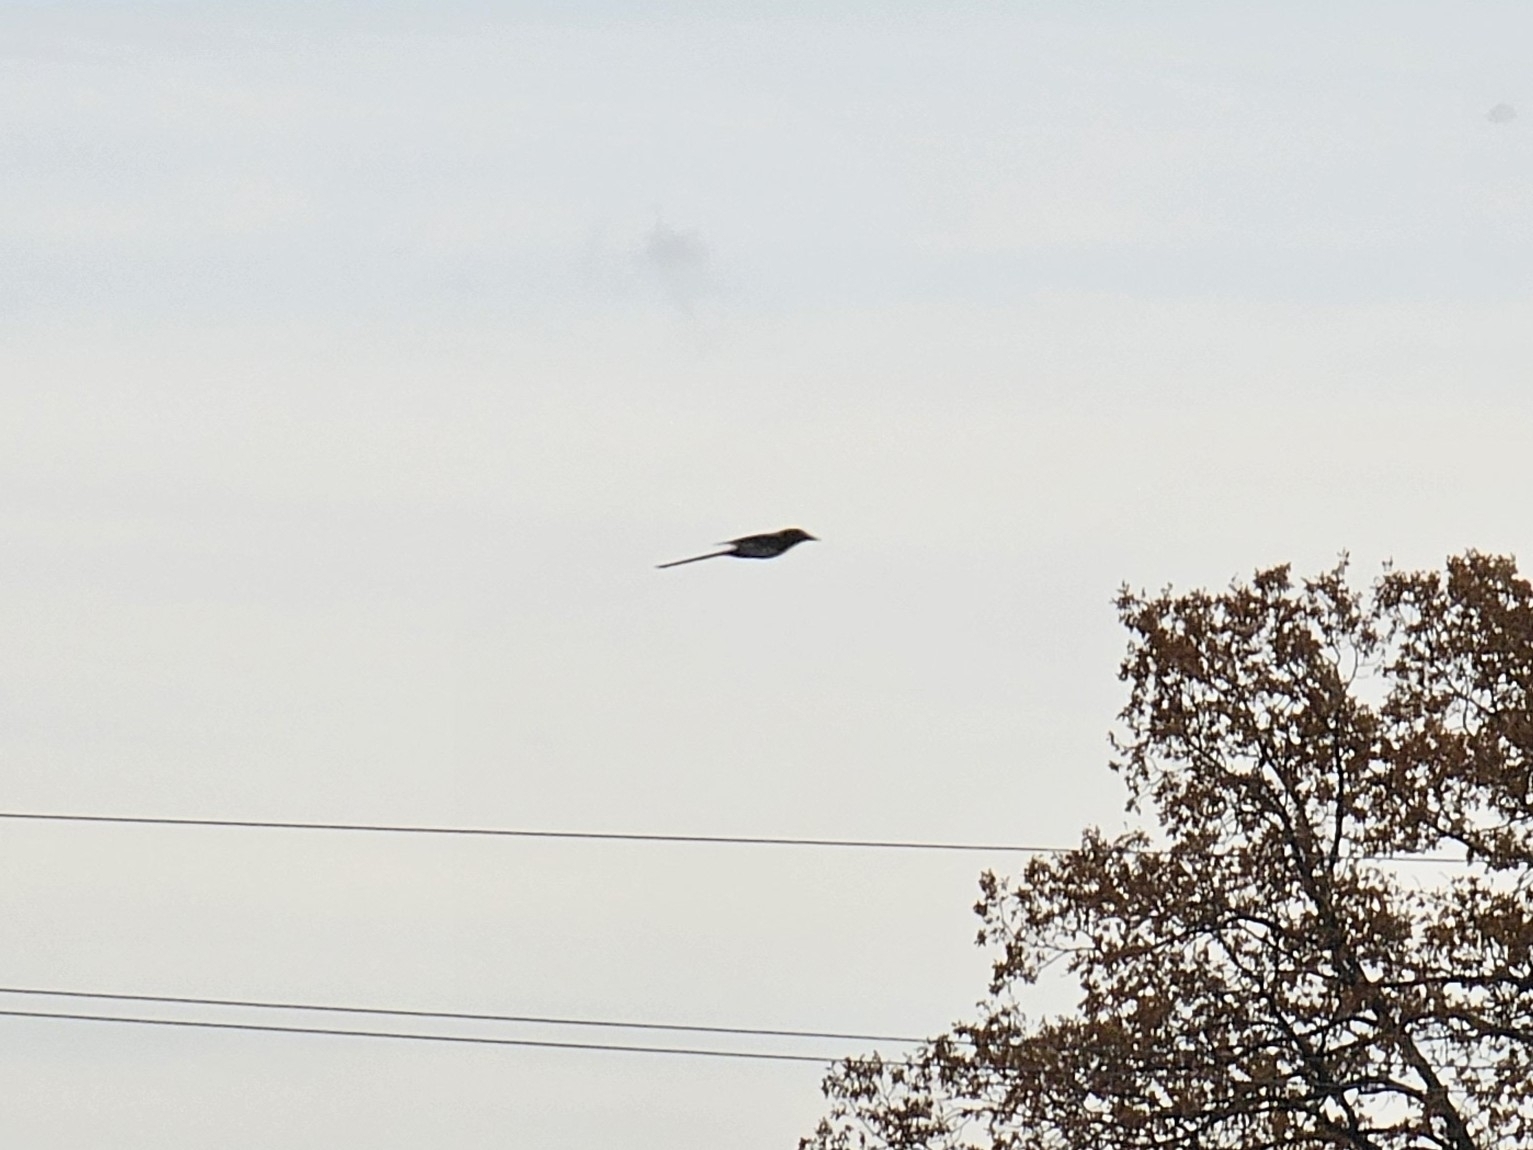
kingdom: Animalia
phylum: Chordata
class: Aves
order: Passeriformes
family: Corvidae
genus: Pica
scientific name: Pica pica
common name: Eurasian magpie
